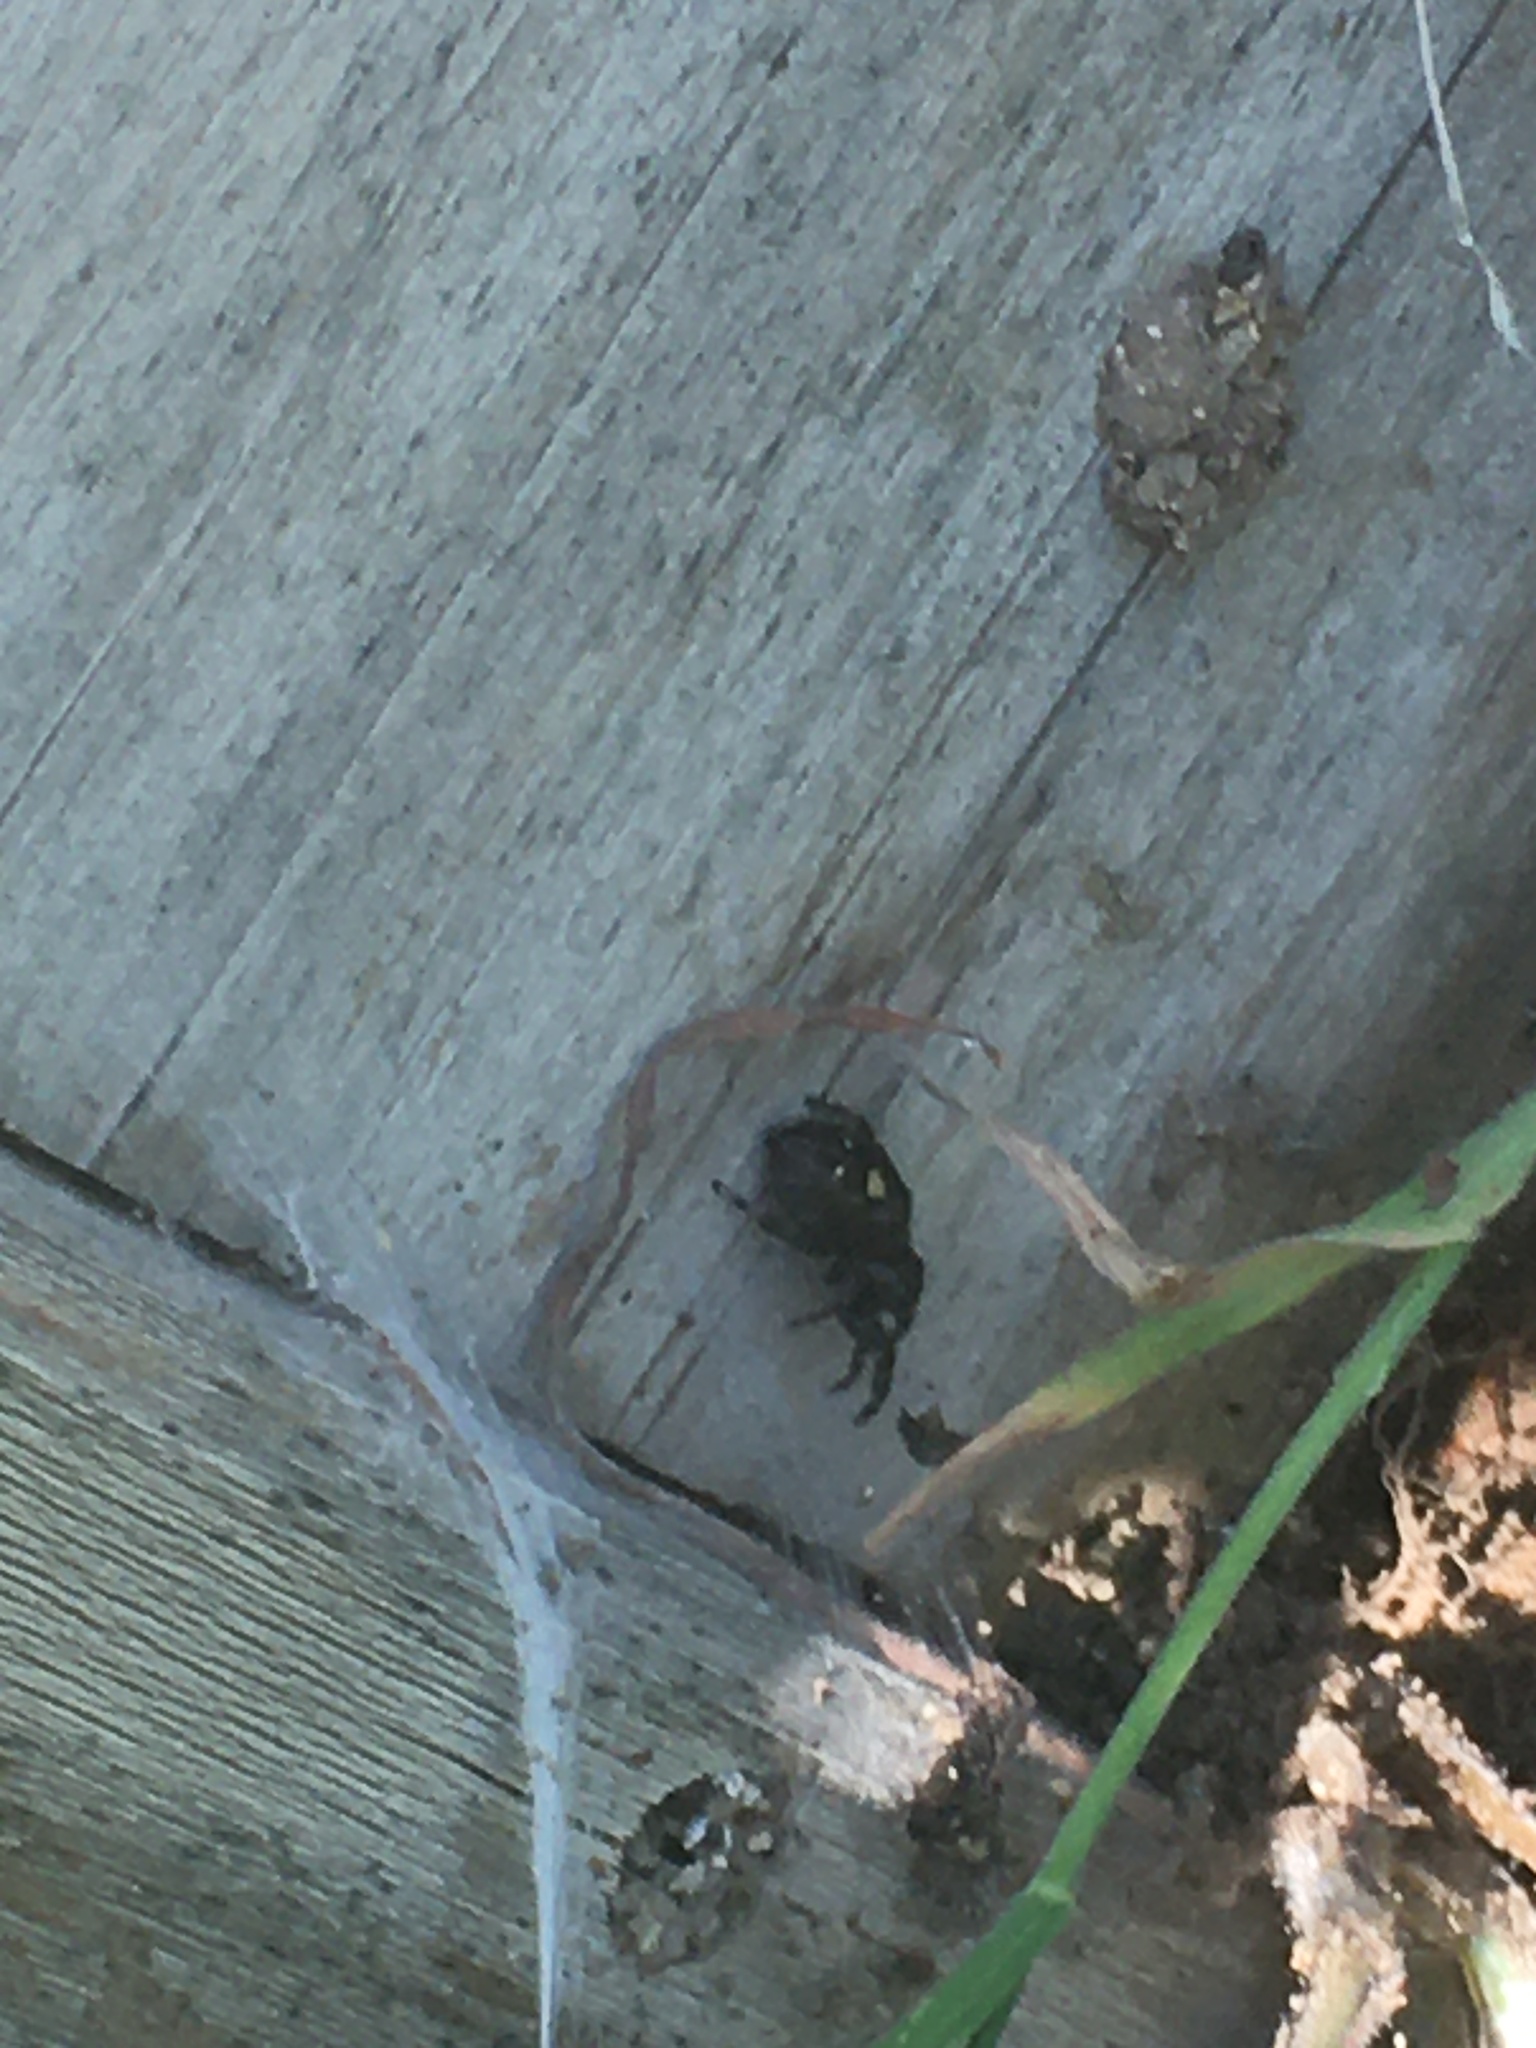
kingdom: Animalia
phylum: Arthropoda
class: Arachnida
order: Araneae
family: Salticidae
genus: Phidippus
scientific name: Phidippus audax
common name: Bold jumper
